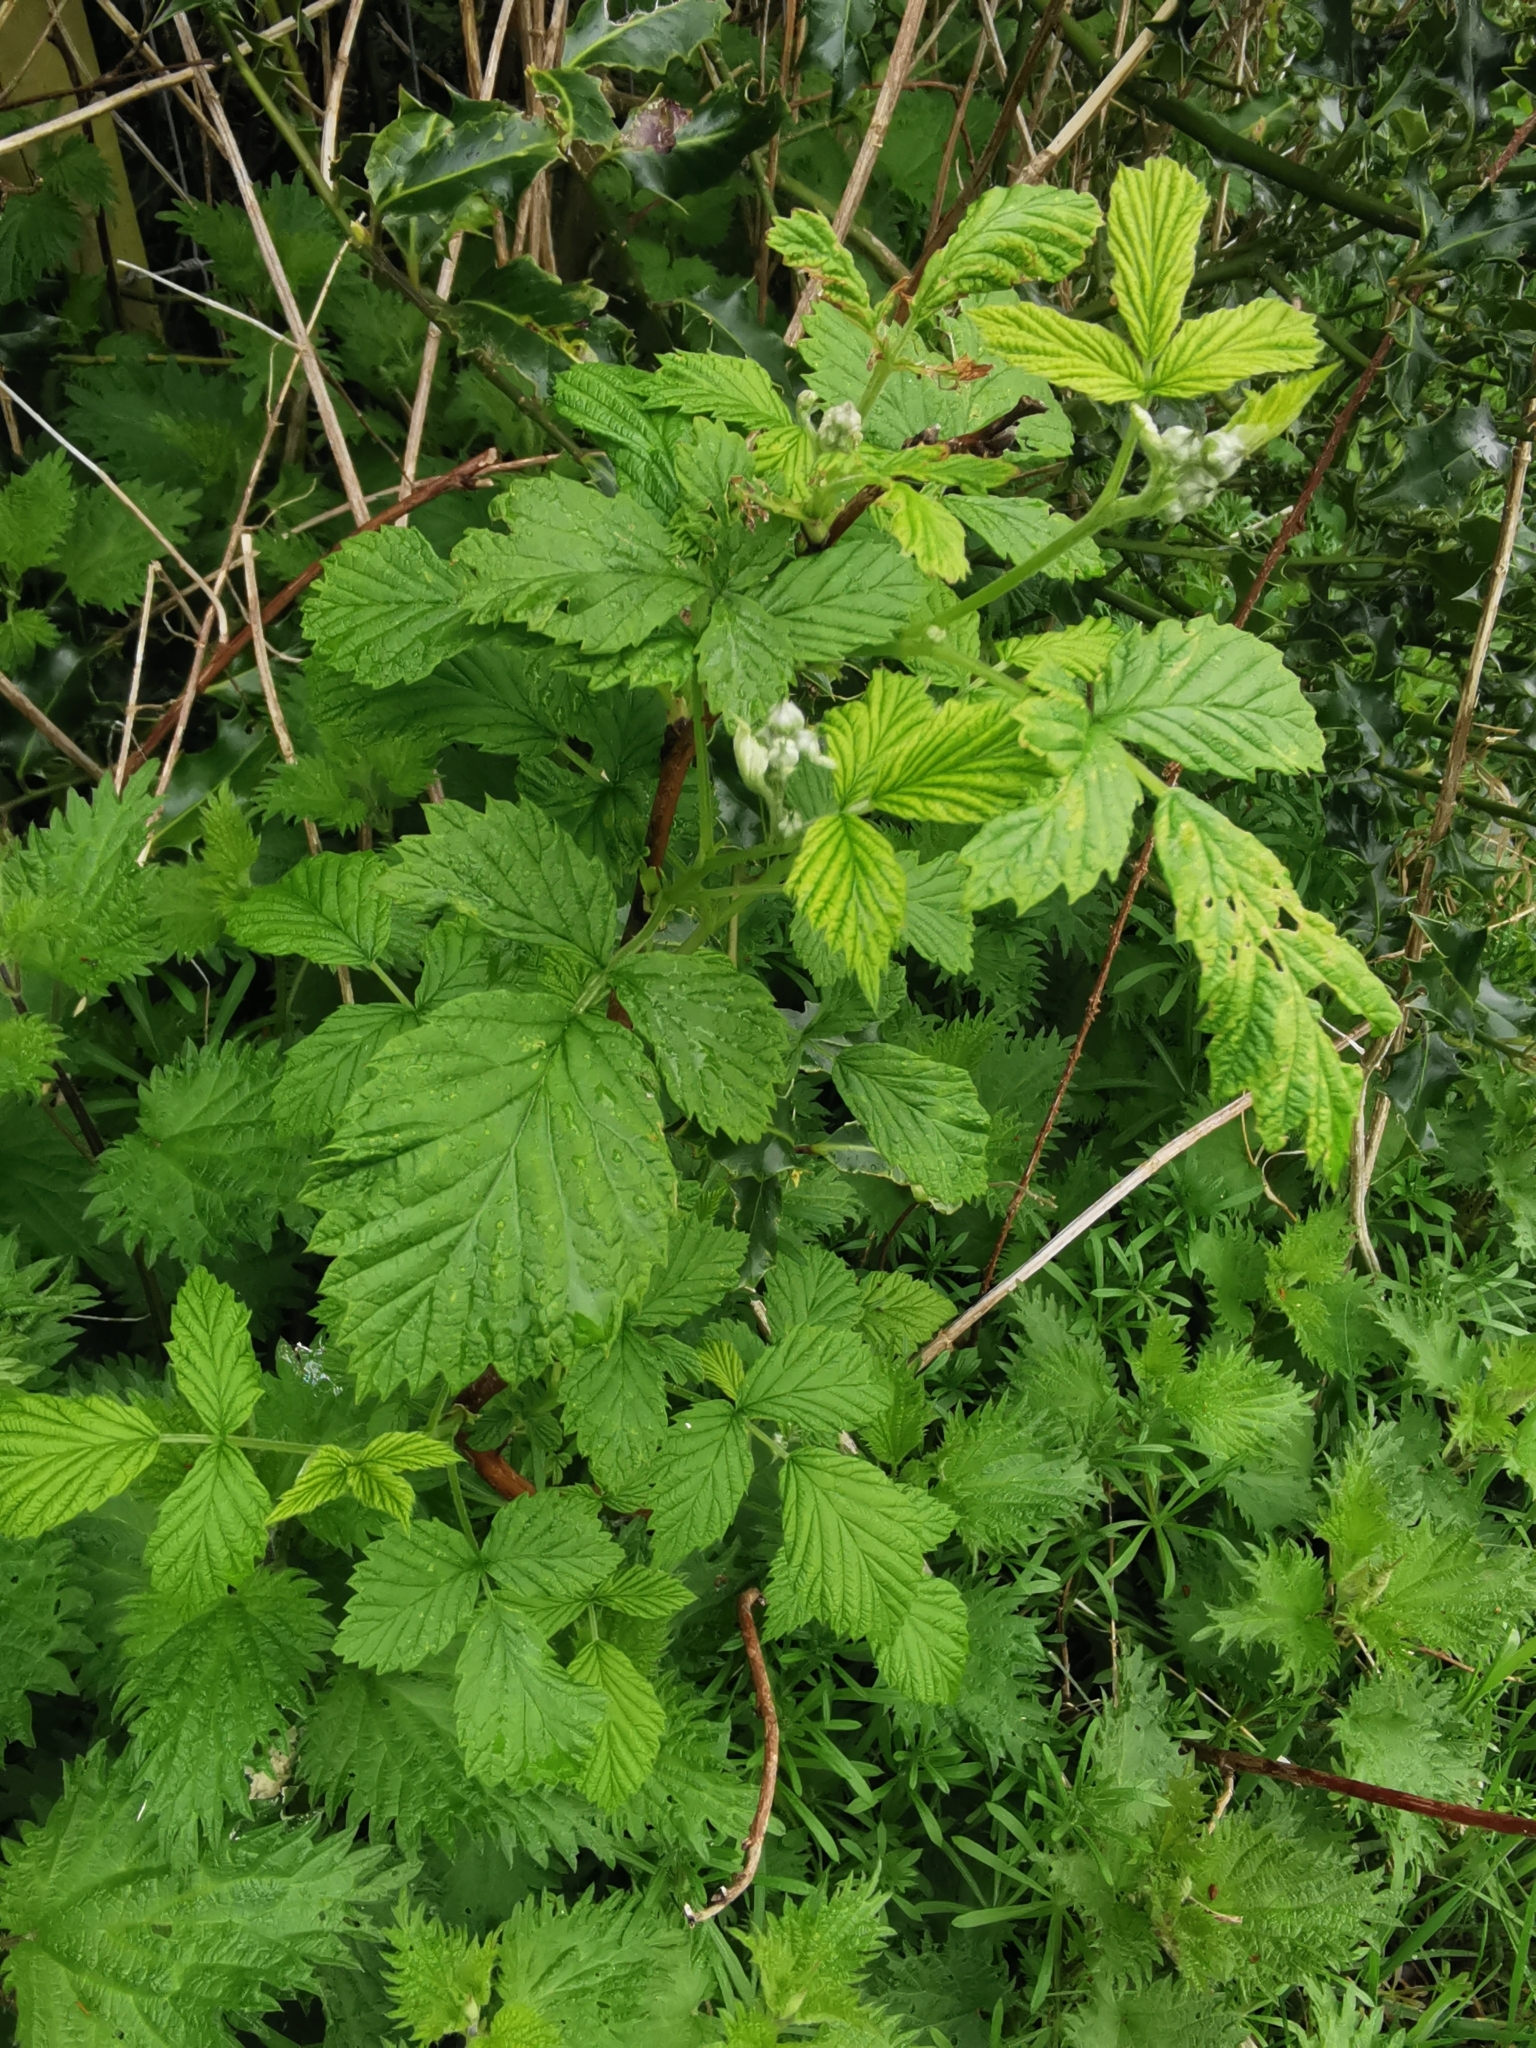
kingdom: Plantae
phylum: Tracheophyta
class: Magnoliopsida
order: Rosales
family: Rosaceae
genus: Rubus
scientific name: Rubus idaeus
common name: Raspberry
